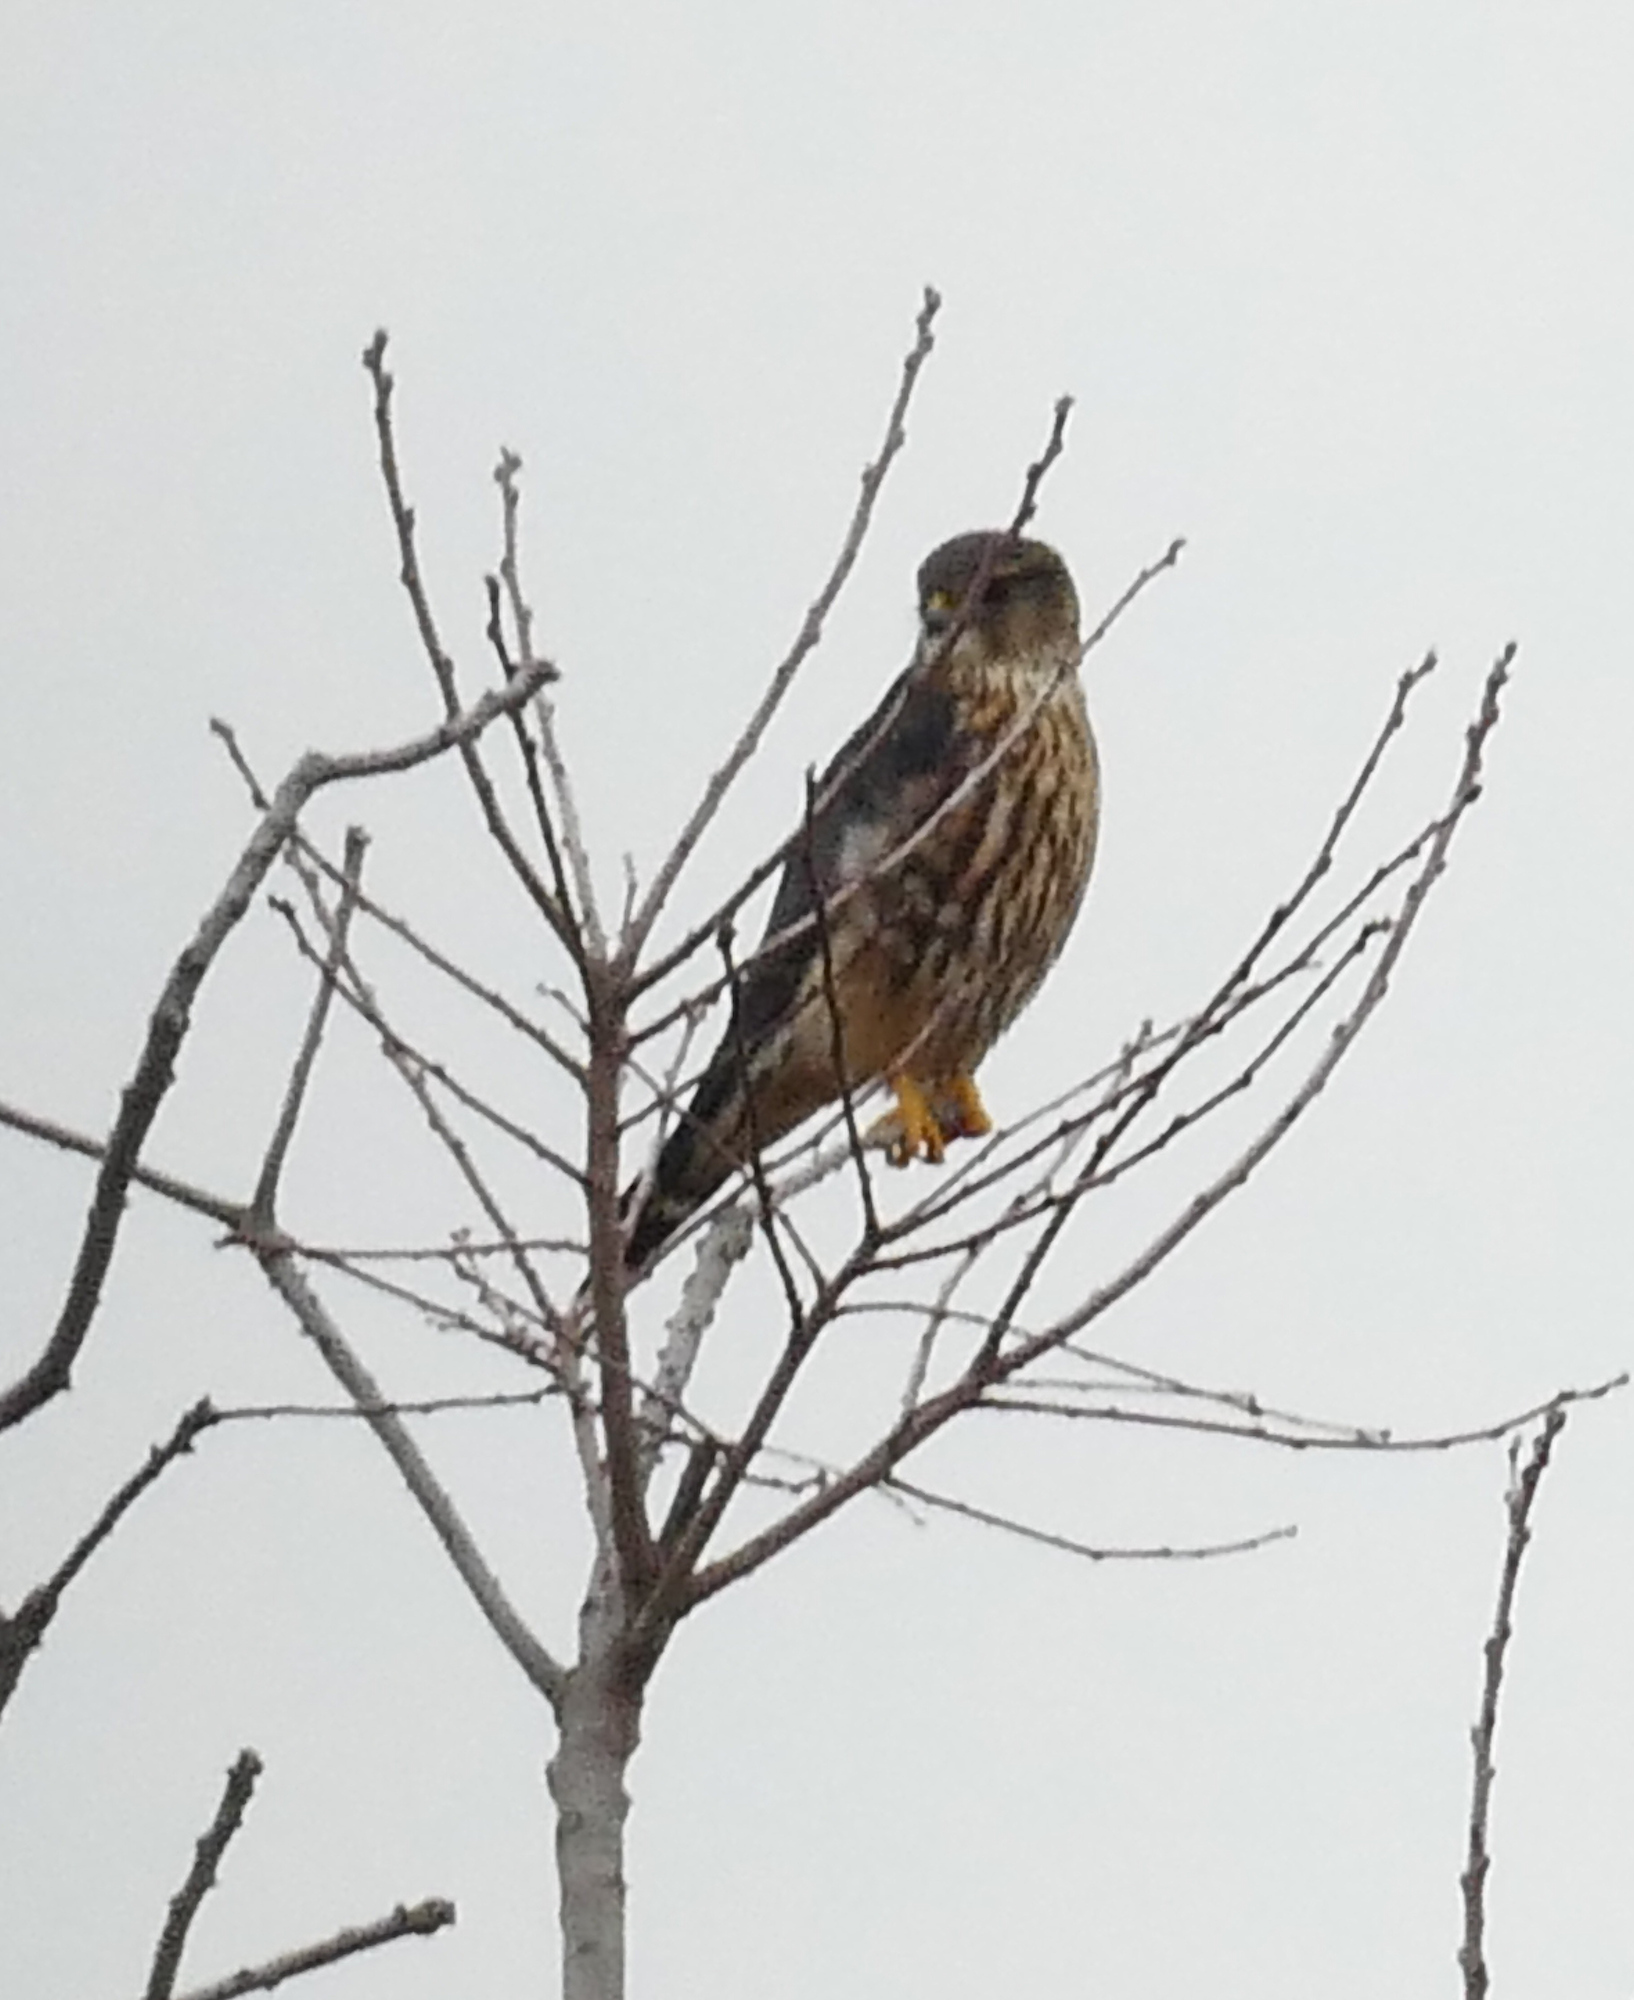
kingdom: Animalia
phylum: Chordata
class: Aves
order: Falconiformes
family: Falconidae
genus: Falco
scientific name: Falco columbarius
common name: Merlin
